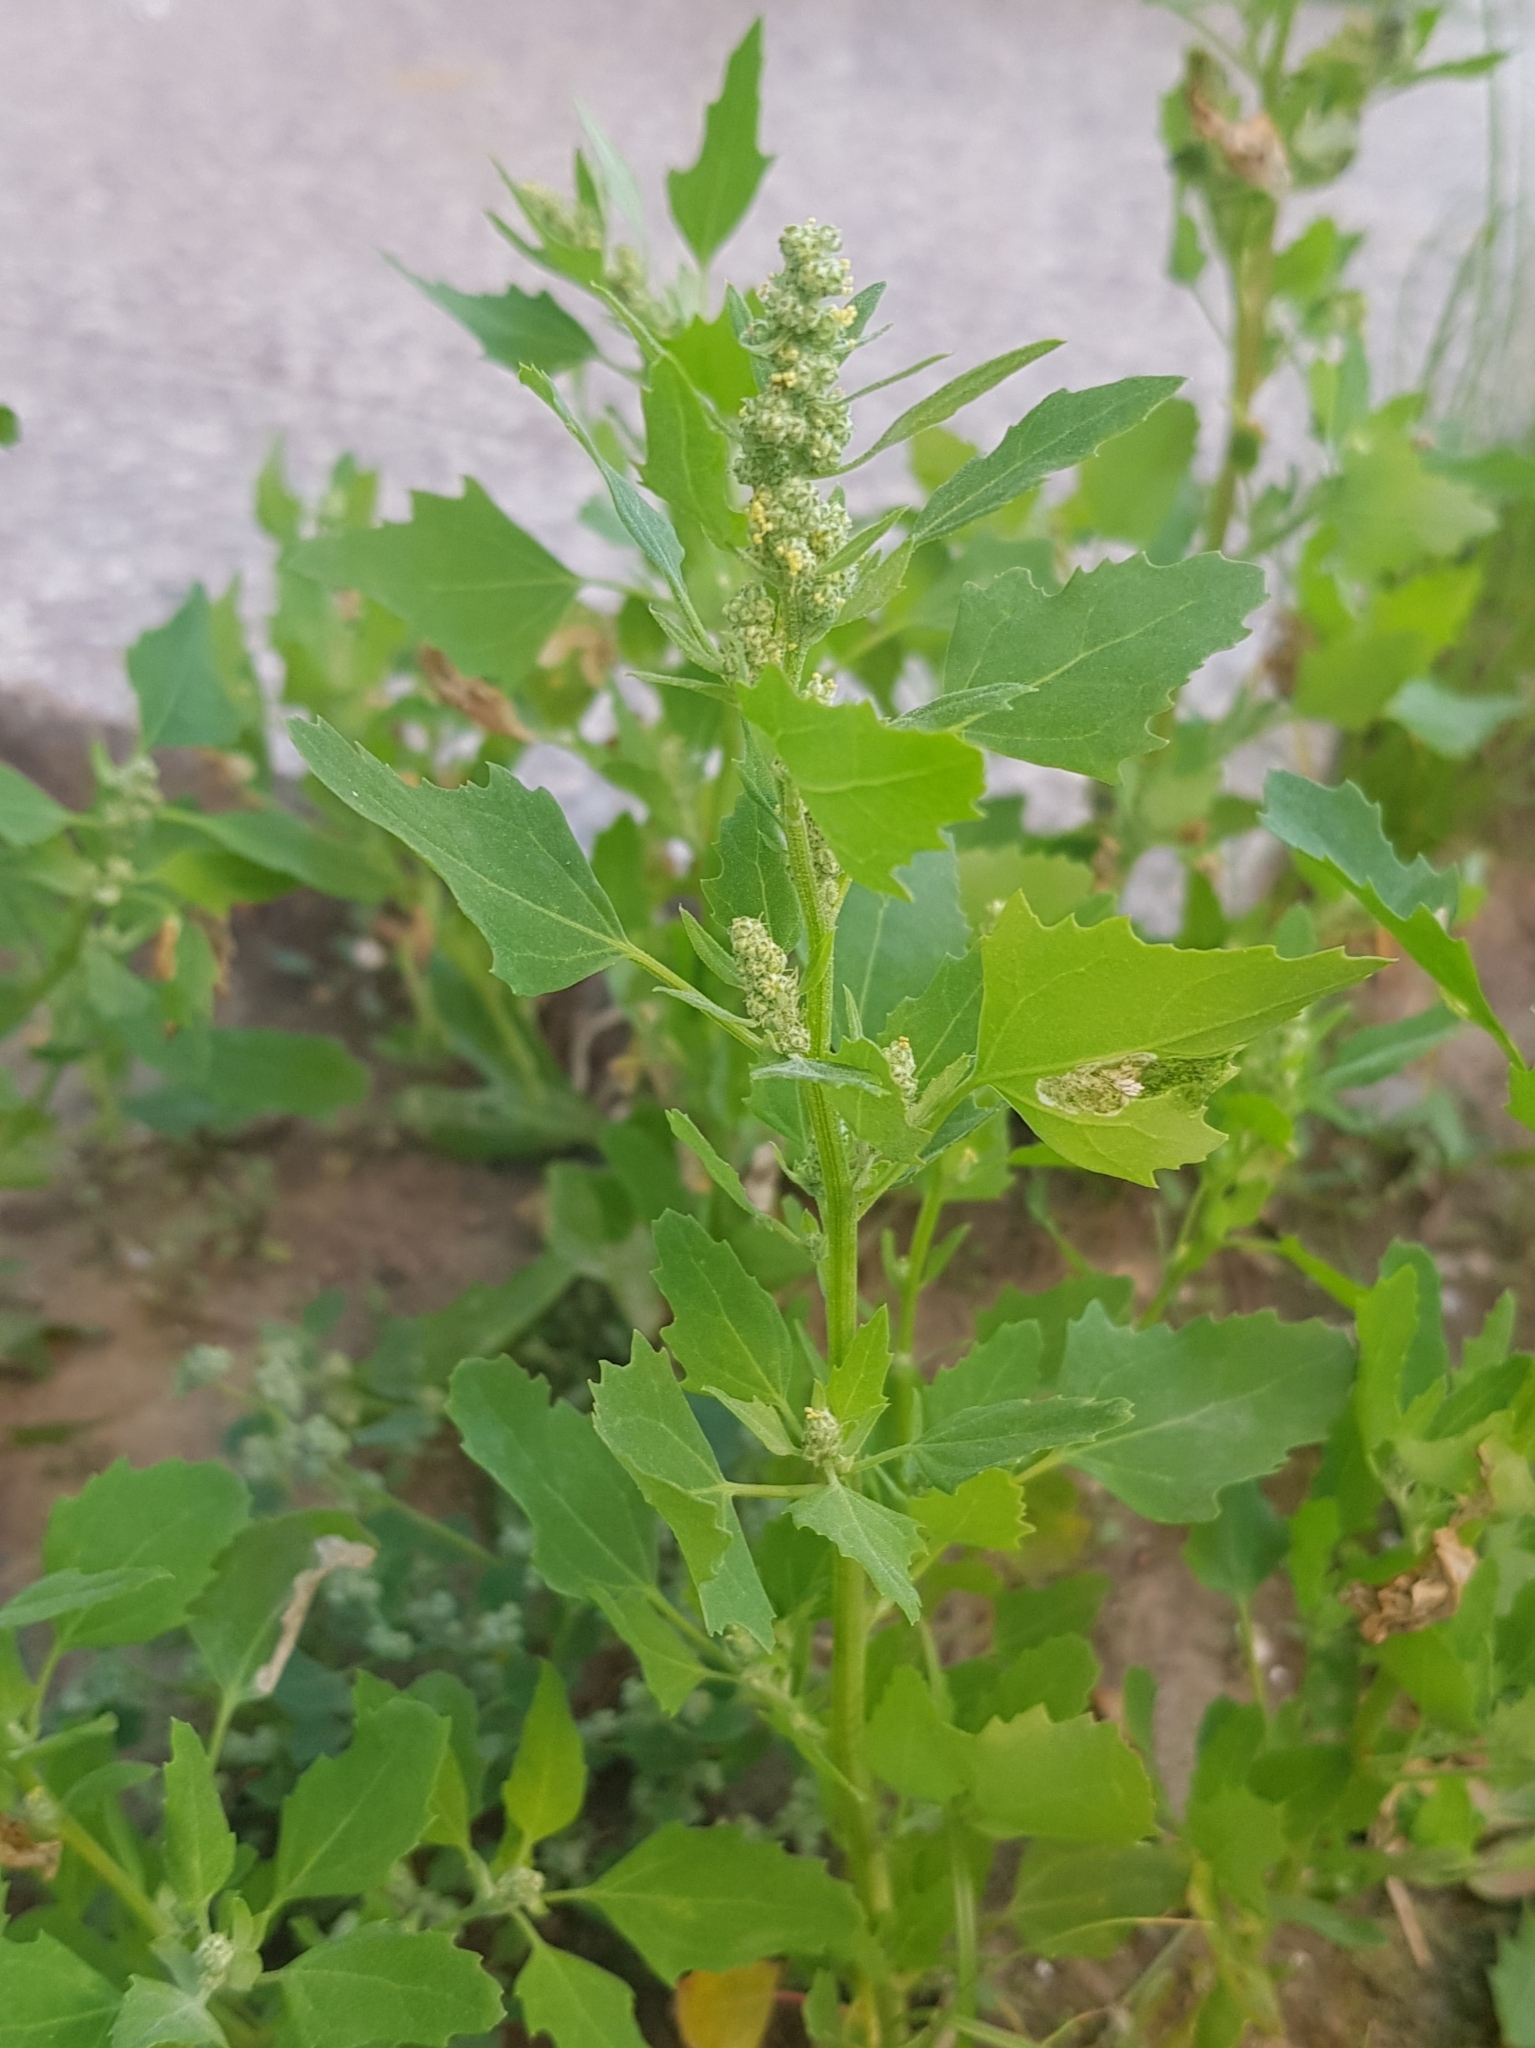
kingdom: Plantae
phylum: Tracheophyta
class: Magnoliopsida
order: Caryophyllales
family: Amaranthaceae
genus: Chenopodium
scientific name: Chenopodium album
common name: Fat-hen
